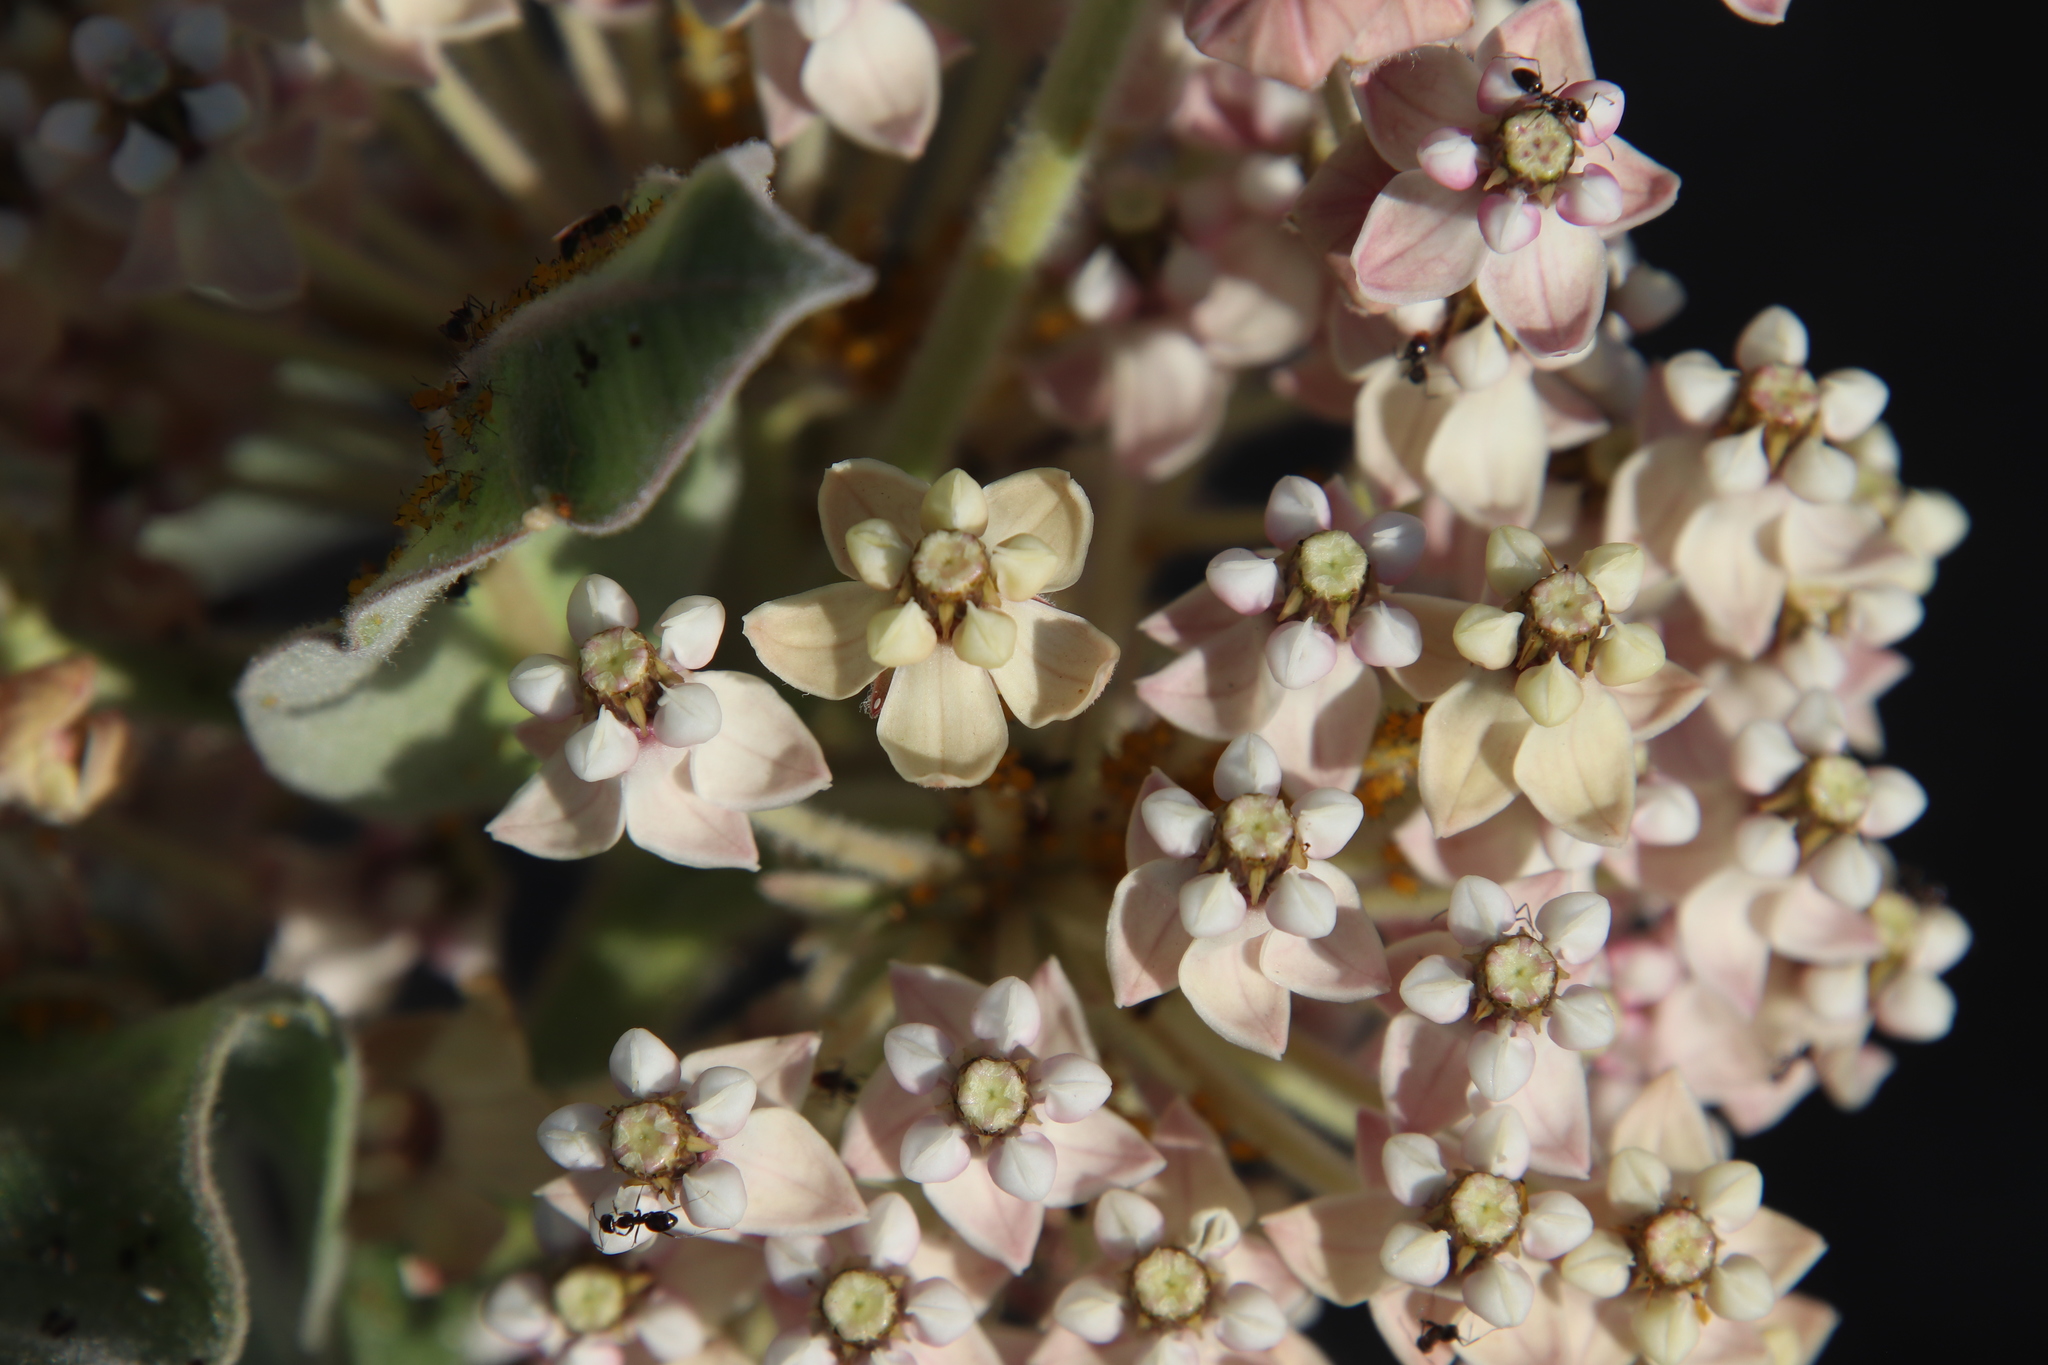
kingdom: Plantae
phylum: Tracheophyta
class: Magnoliopsida
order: Gentianales
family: Apocynaceae
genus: Asclepias
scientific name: Asclepias eriocarpa
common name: Indian milkweed
